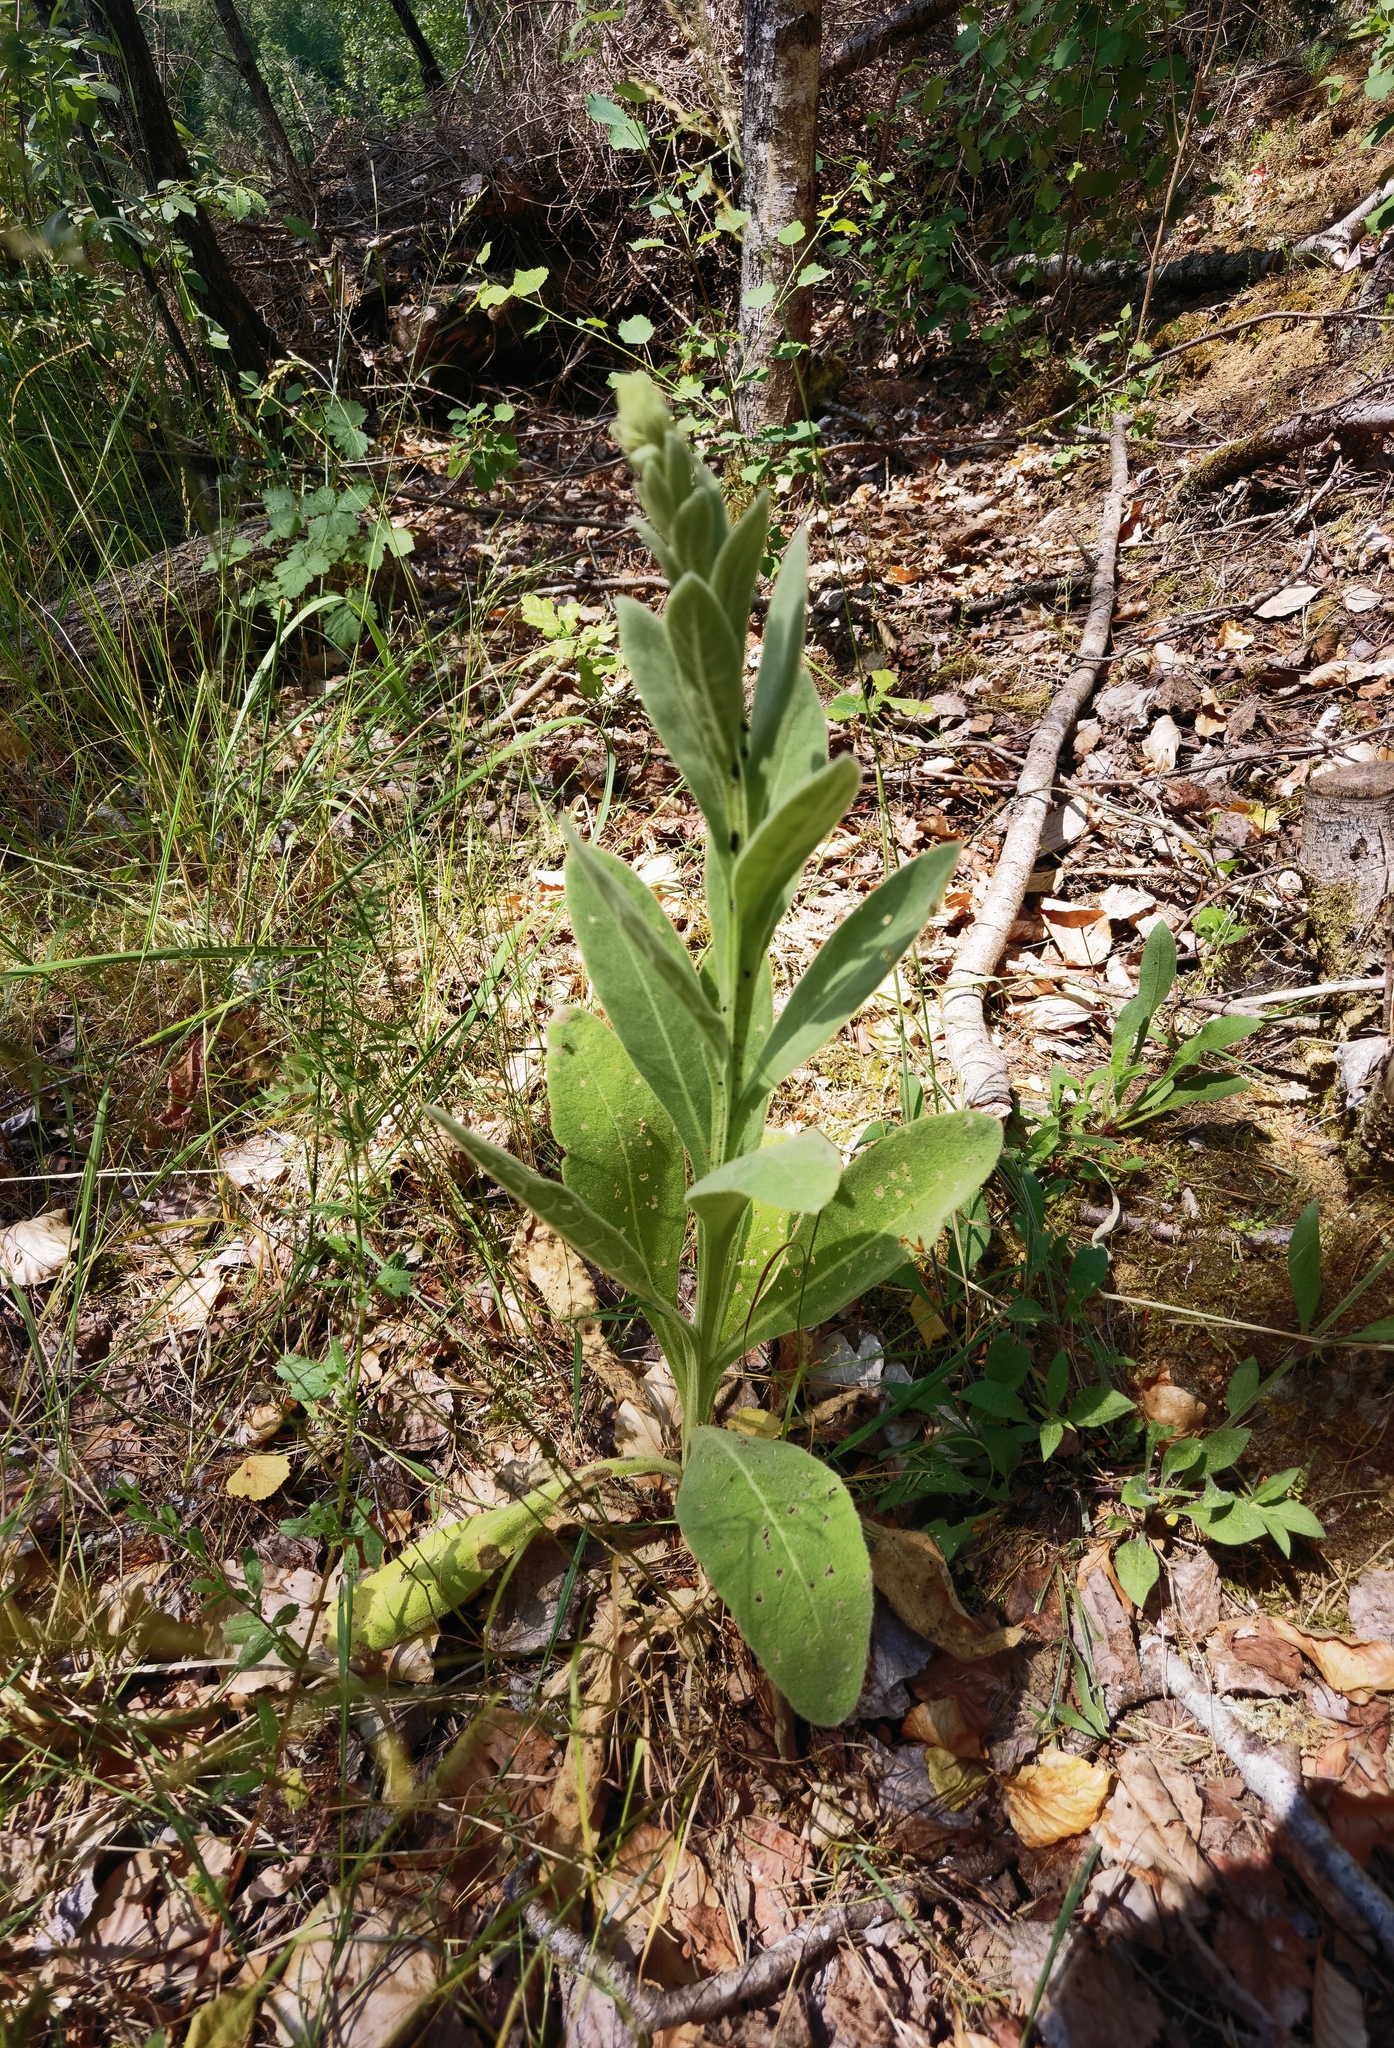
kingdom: Animalia
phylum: Arthropoda
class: Insecta
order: Coleoptera
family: Chrysomelidae
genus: Longitarsus
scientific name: Longitarsus tabidus
